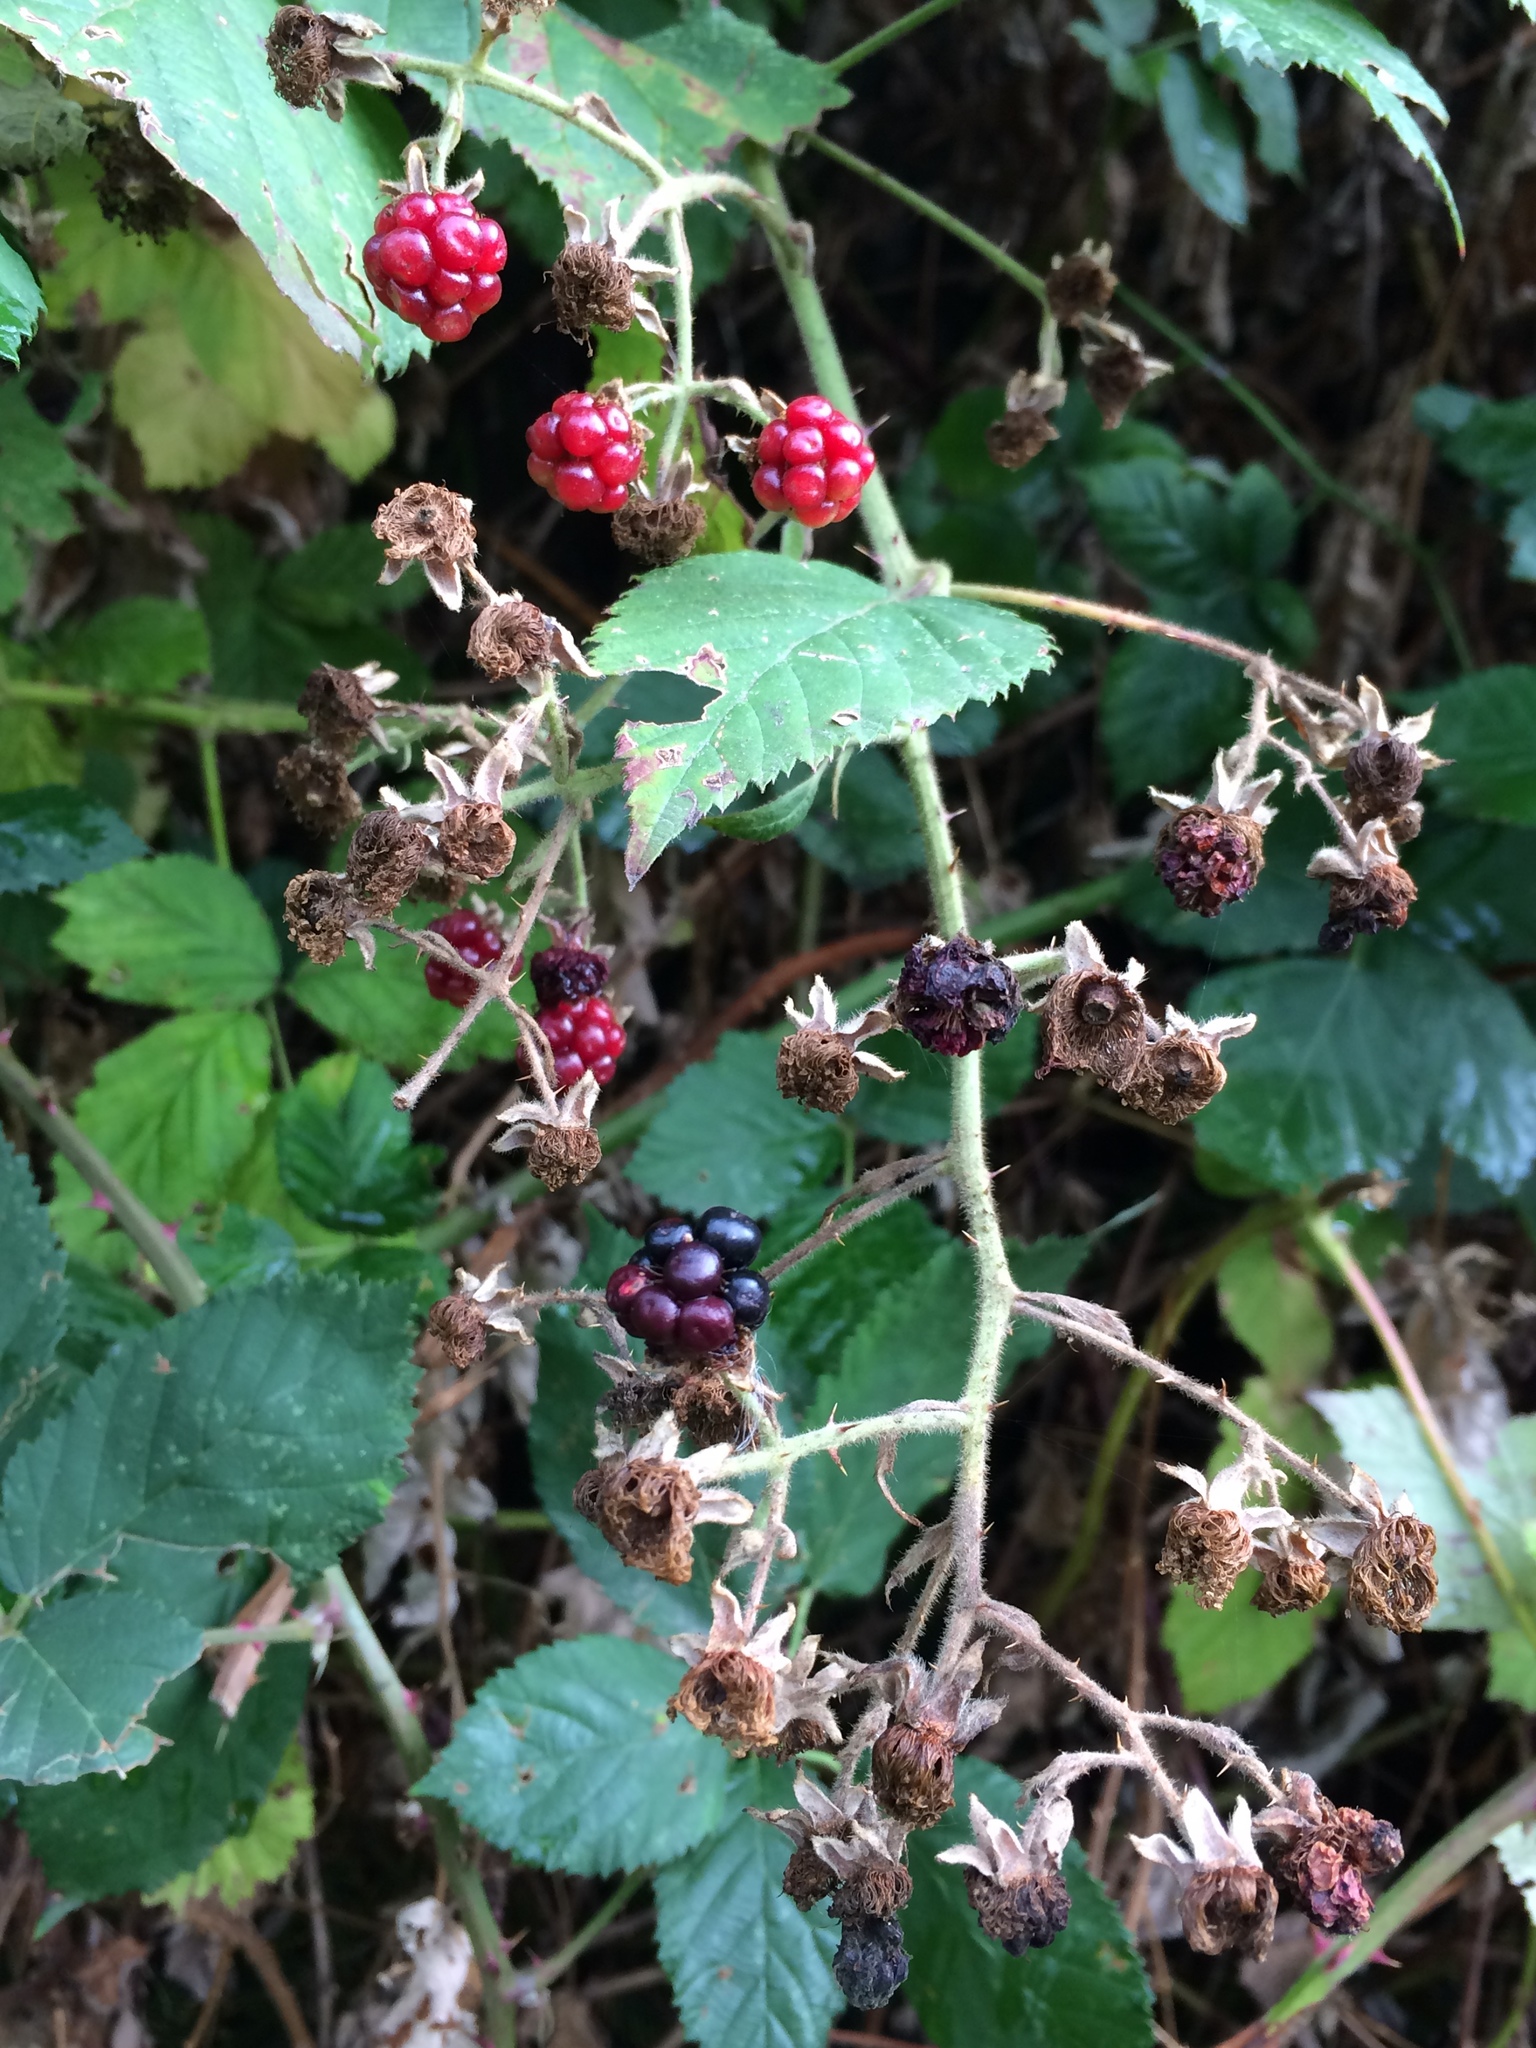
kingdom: Plantae
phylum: Tracheophyta
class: Magnoliopsida
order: Rosales
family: Rosaceae
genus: Rubus
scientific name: Rubus bifrons
